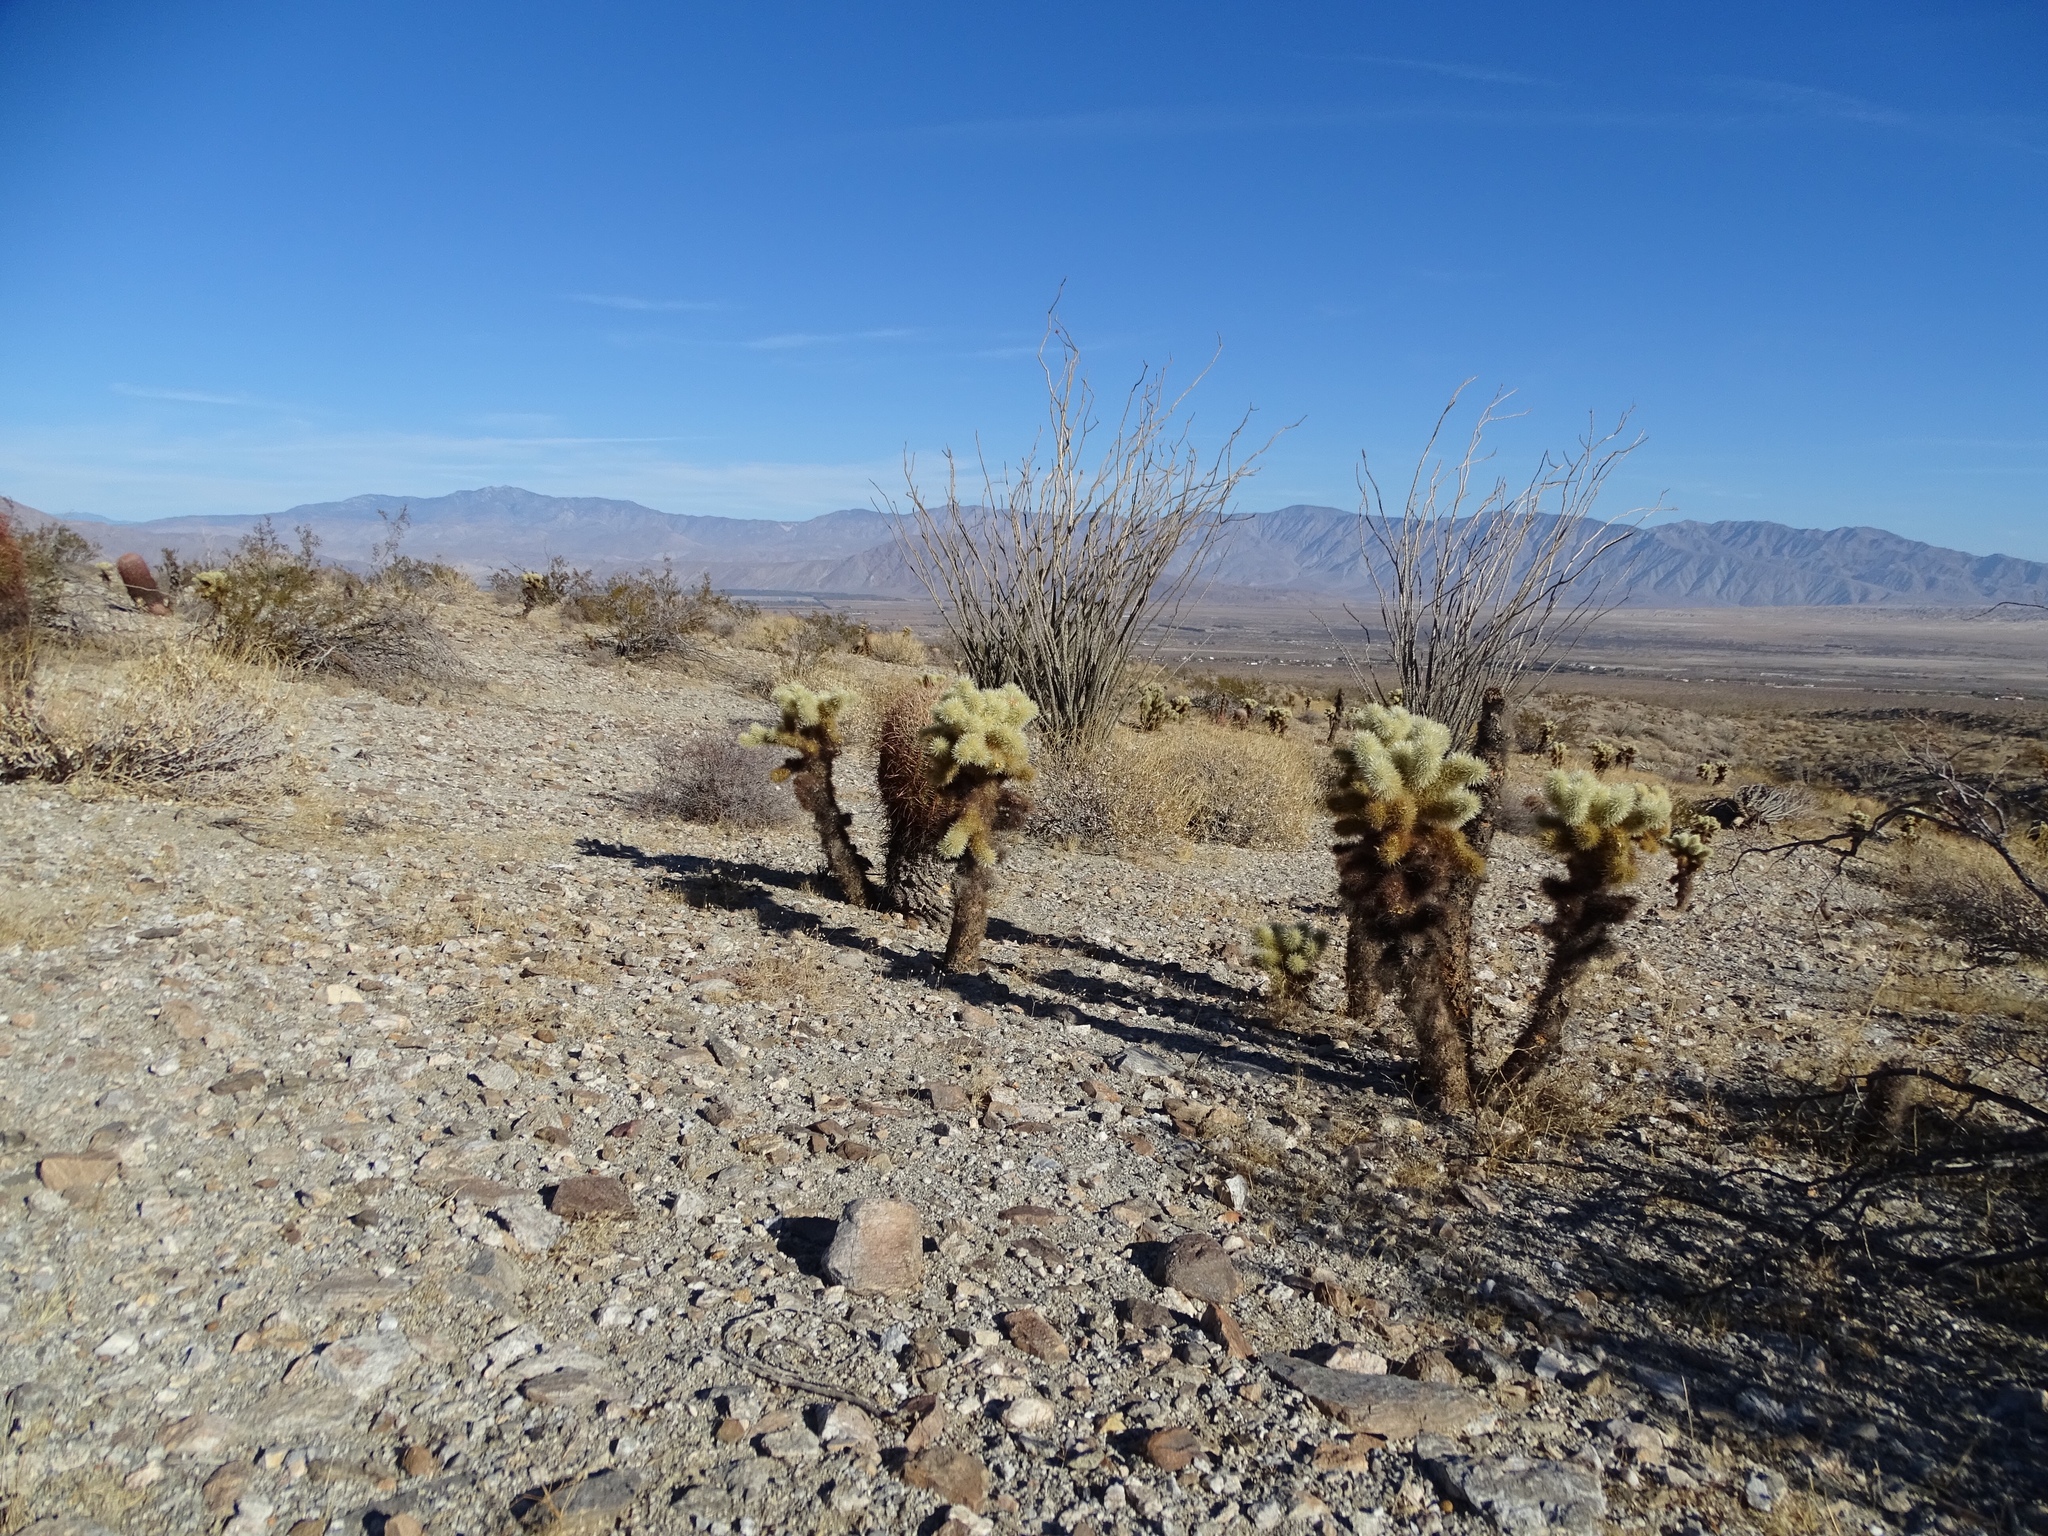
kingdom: Plantae
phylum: Tracheophyta
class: Magnoliopsida
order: Caryophyllales
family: Cactaceae
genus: Cylindropuntia
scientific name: Cylindropuntia fosbergii
